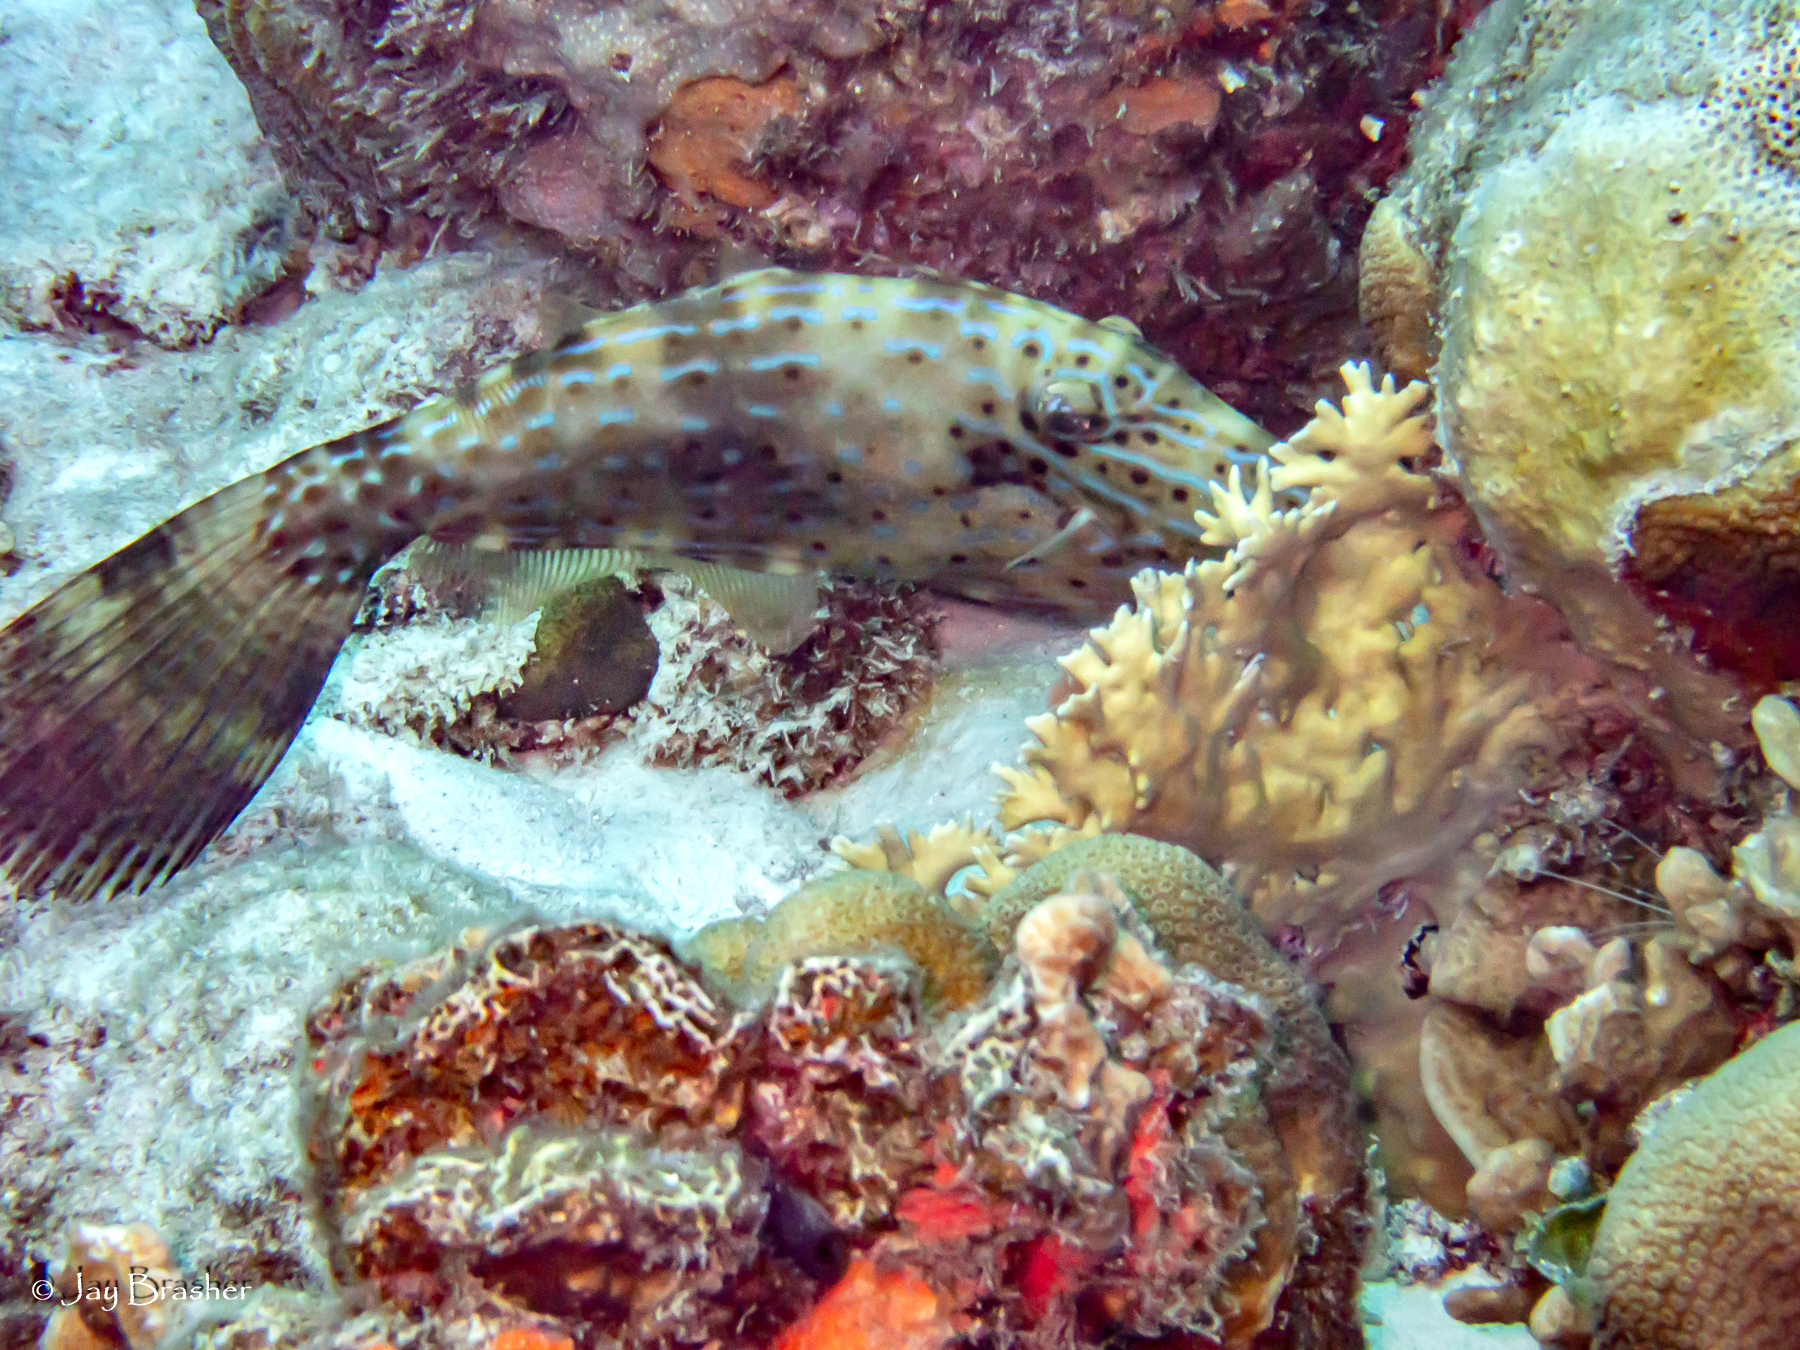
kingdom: Animalia
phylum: Cnidaria
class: Hydrozoa
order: Anthoathecata
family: Milleporidae
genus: Millepora
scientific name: Millepora alcicornis
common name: Branching fire coral
